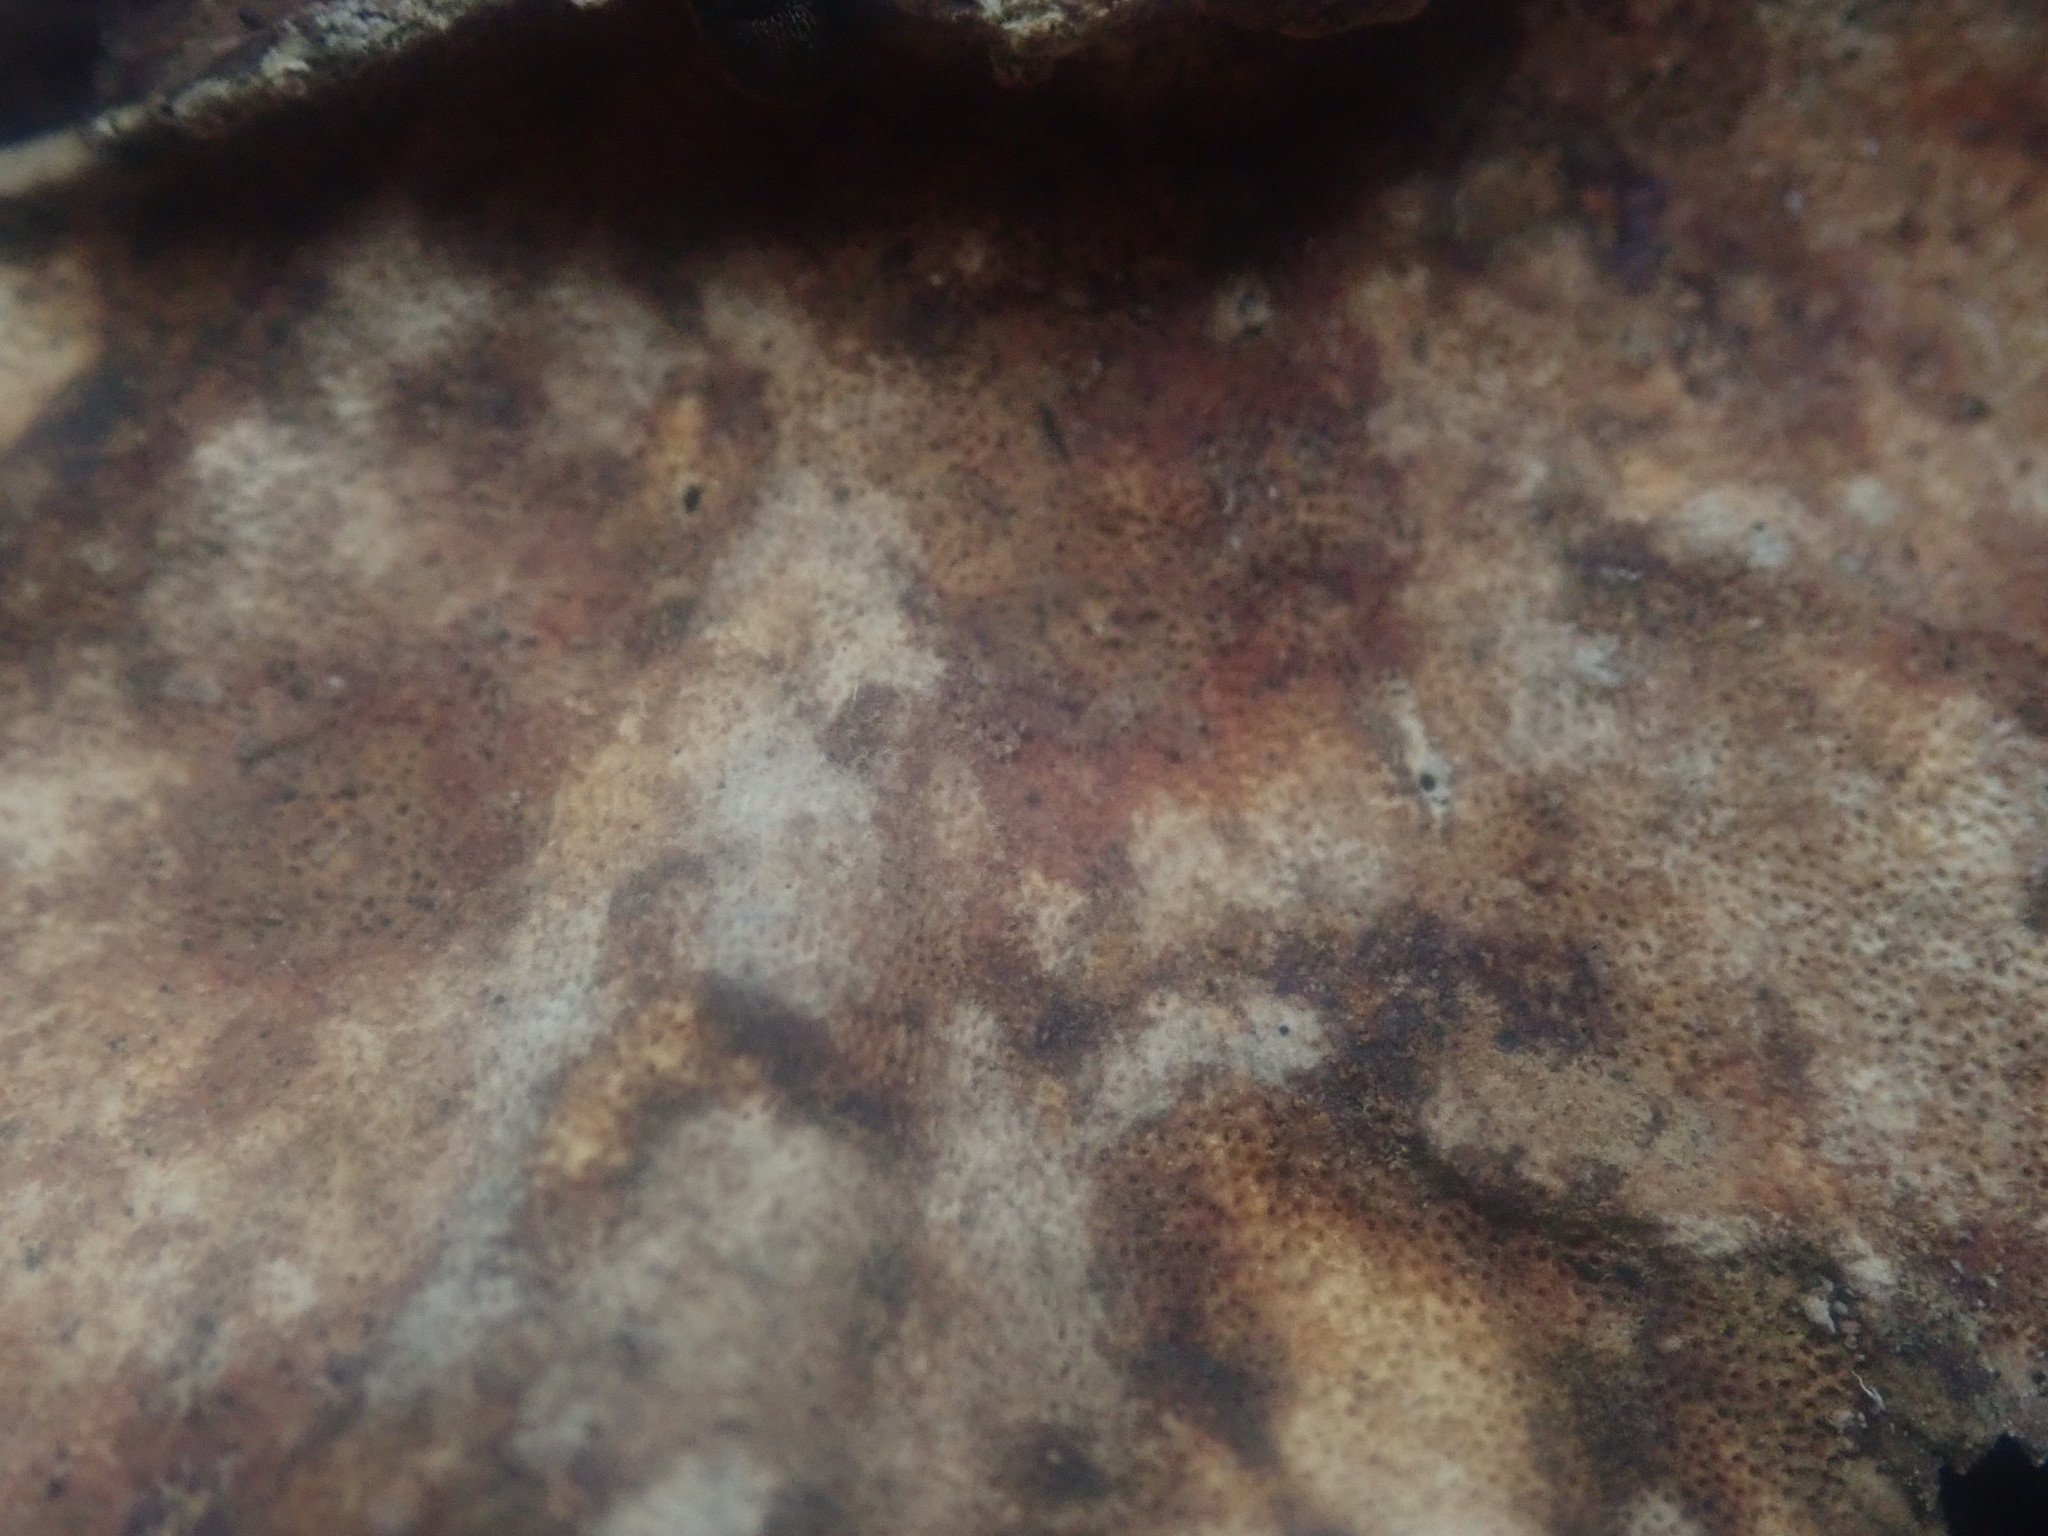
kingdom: Fungi
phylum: Basidiomycota
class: Agaricomycetes
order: Polyporales
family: Polyporaceae
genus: Trametes
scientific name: Trametes versicolor
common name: Turkeytail
